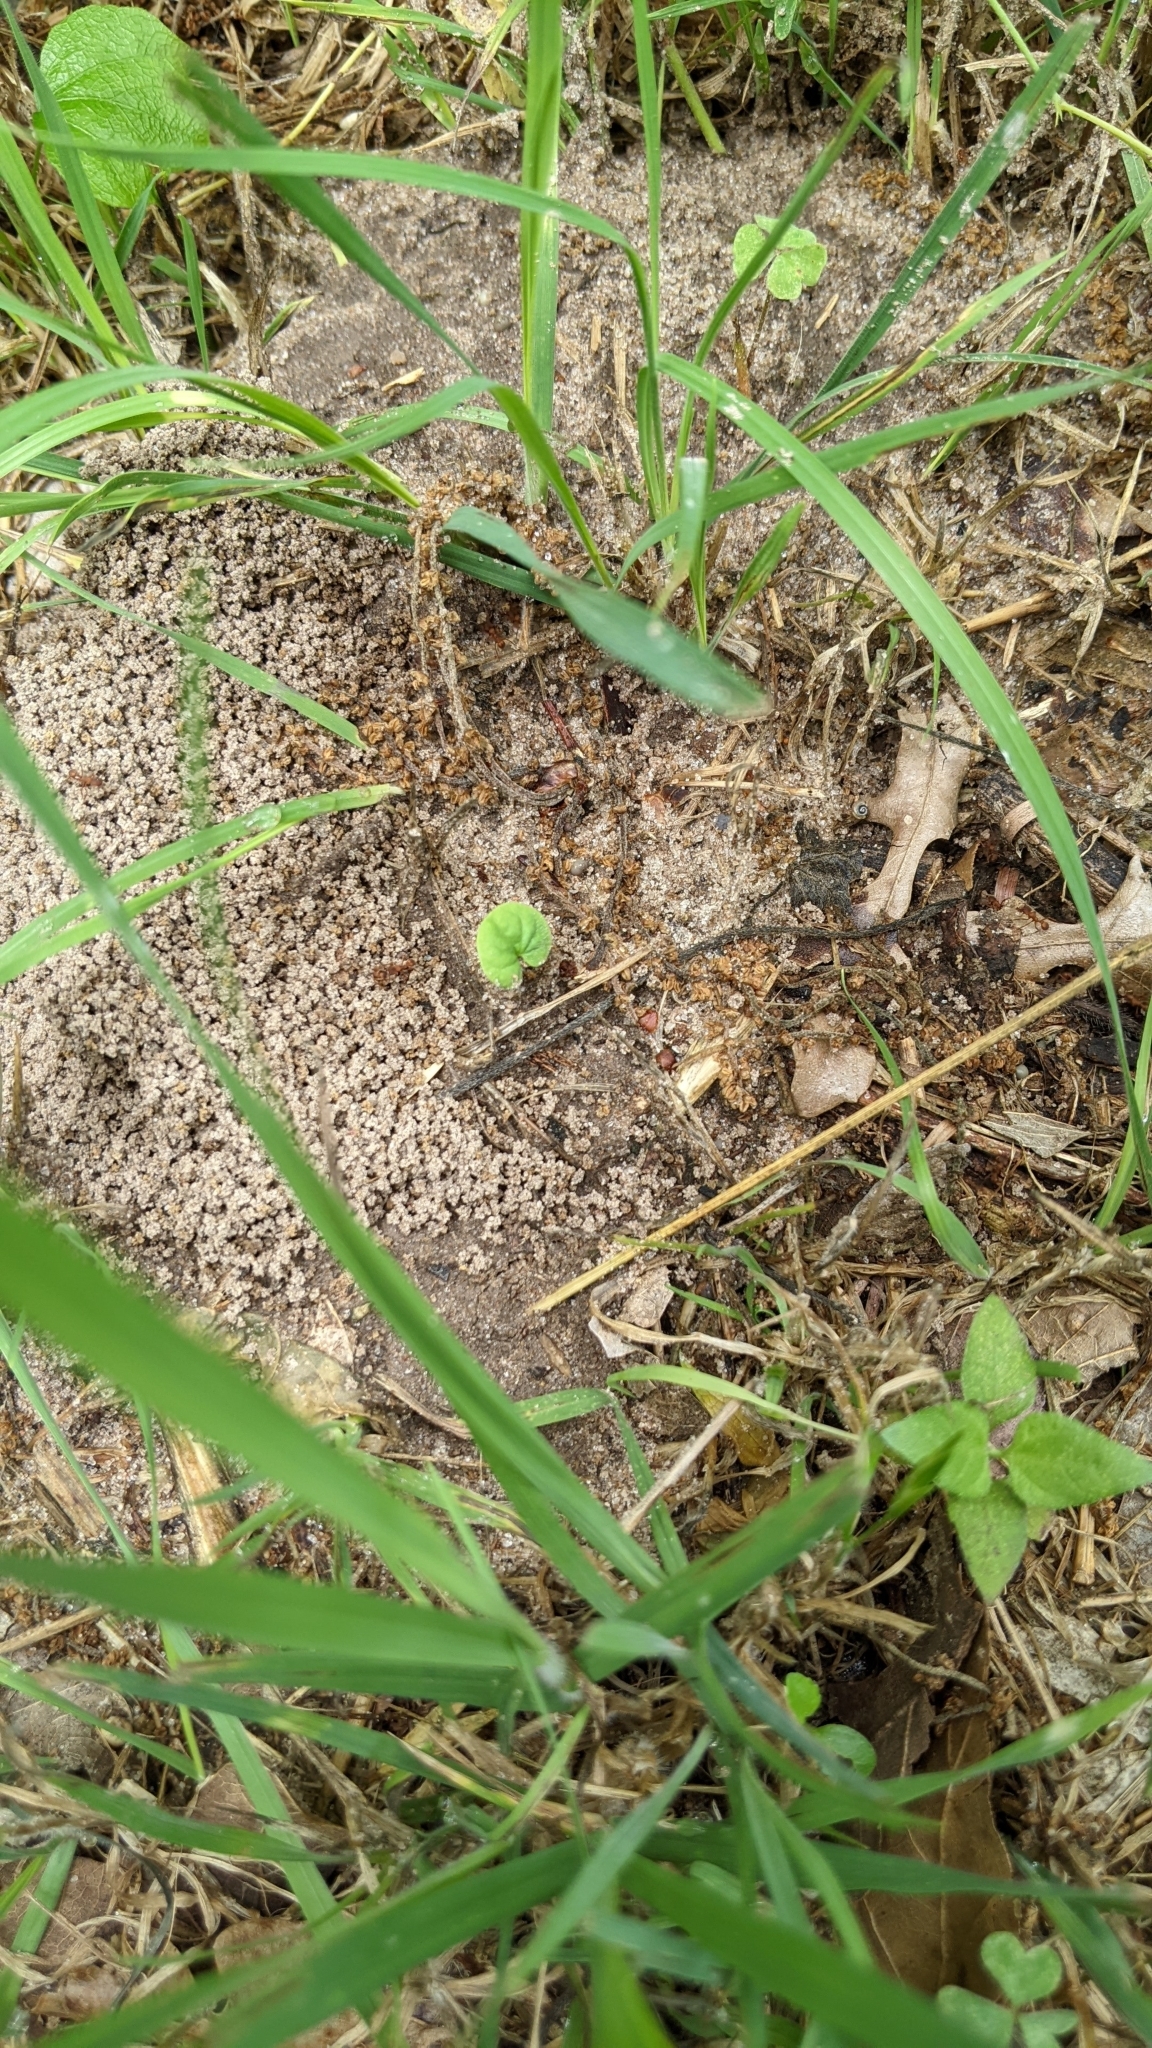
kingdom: Animalia
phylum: Arthropoda
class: Insecta
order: Hymenoptera
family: Formicidae
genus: Trachymyrmex
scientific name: Trachymyrmex septentrionalis
